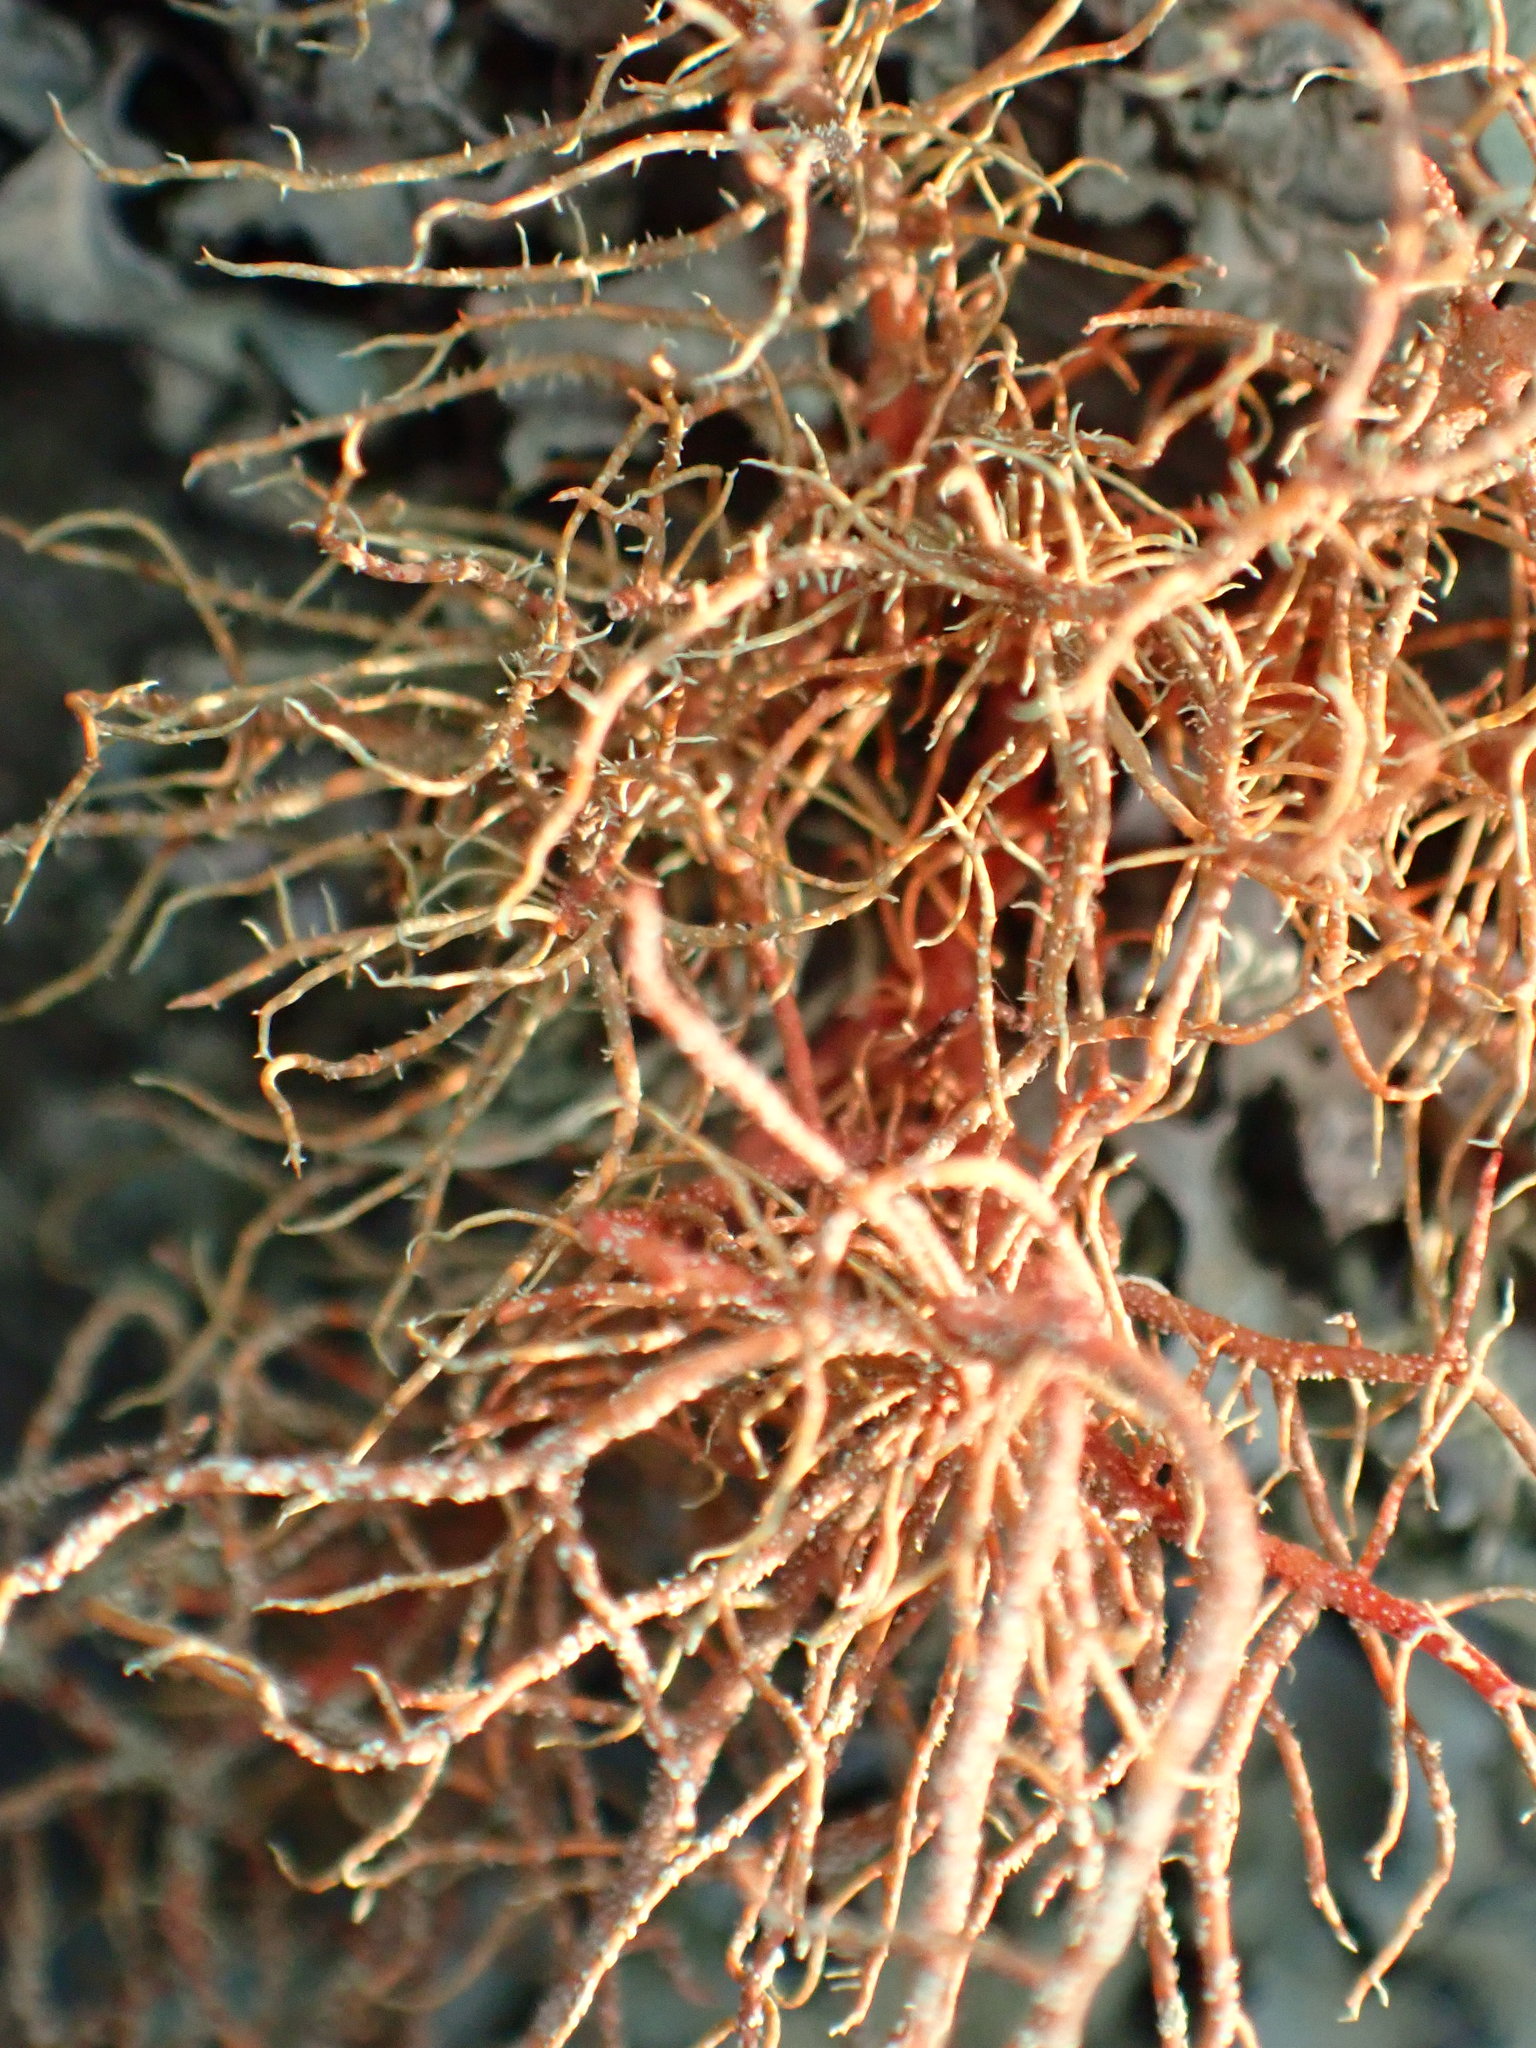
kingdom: Fungi
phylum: Ascomycota
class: Lecanoromycetes
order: Lecanorales
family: Parmeliaceae
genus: Usnea
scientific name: Usnea rubicunda
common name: Red beard lichen
